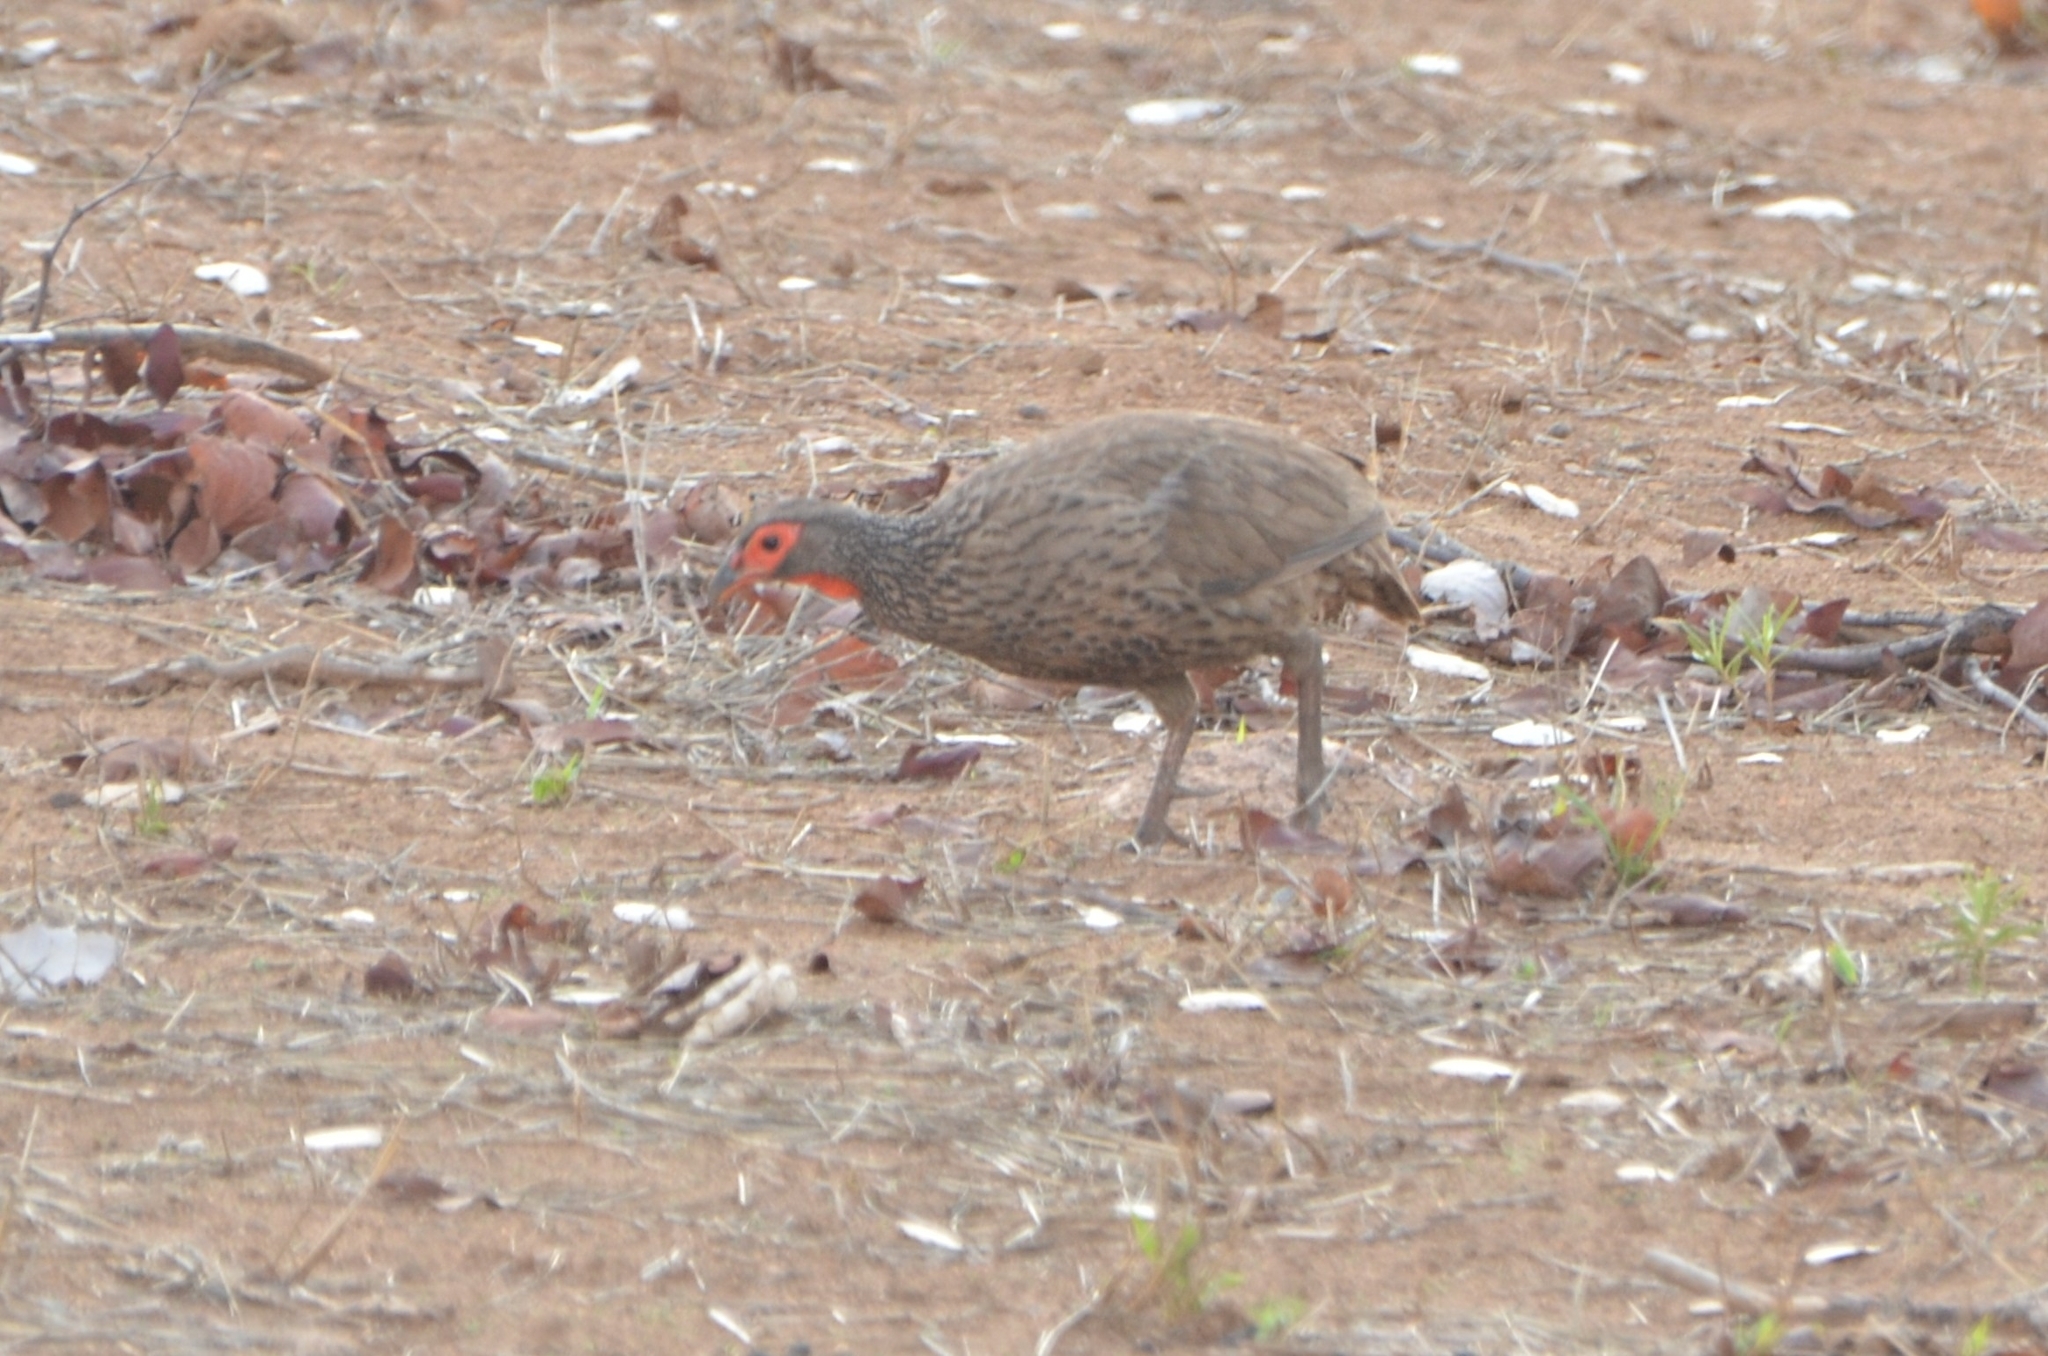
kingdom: Animalia
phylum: Chordata
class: Aves
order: Galliformes
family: Phasianidae
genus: Pternistis
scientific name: Pternistis swainsonii
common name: Swainson's spurfowl
